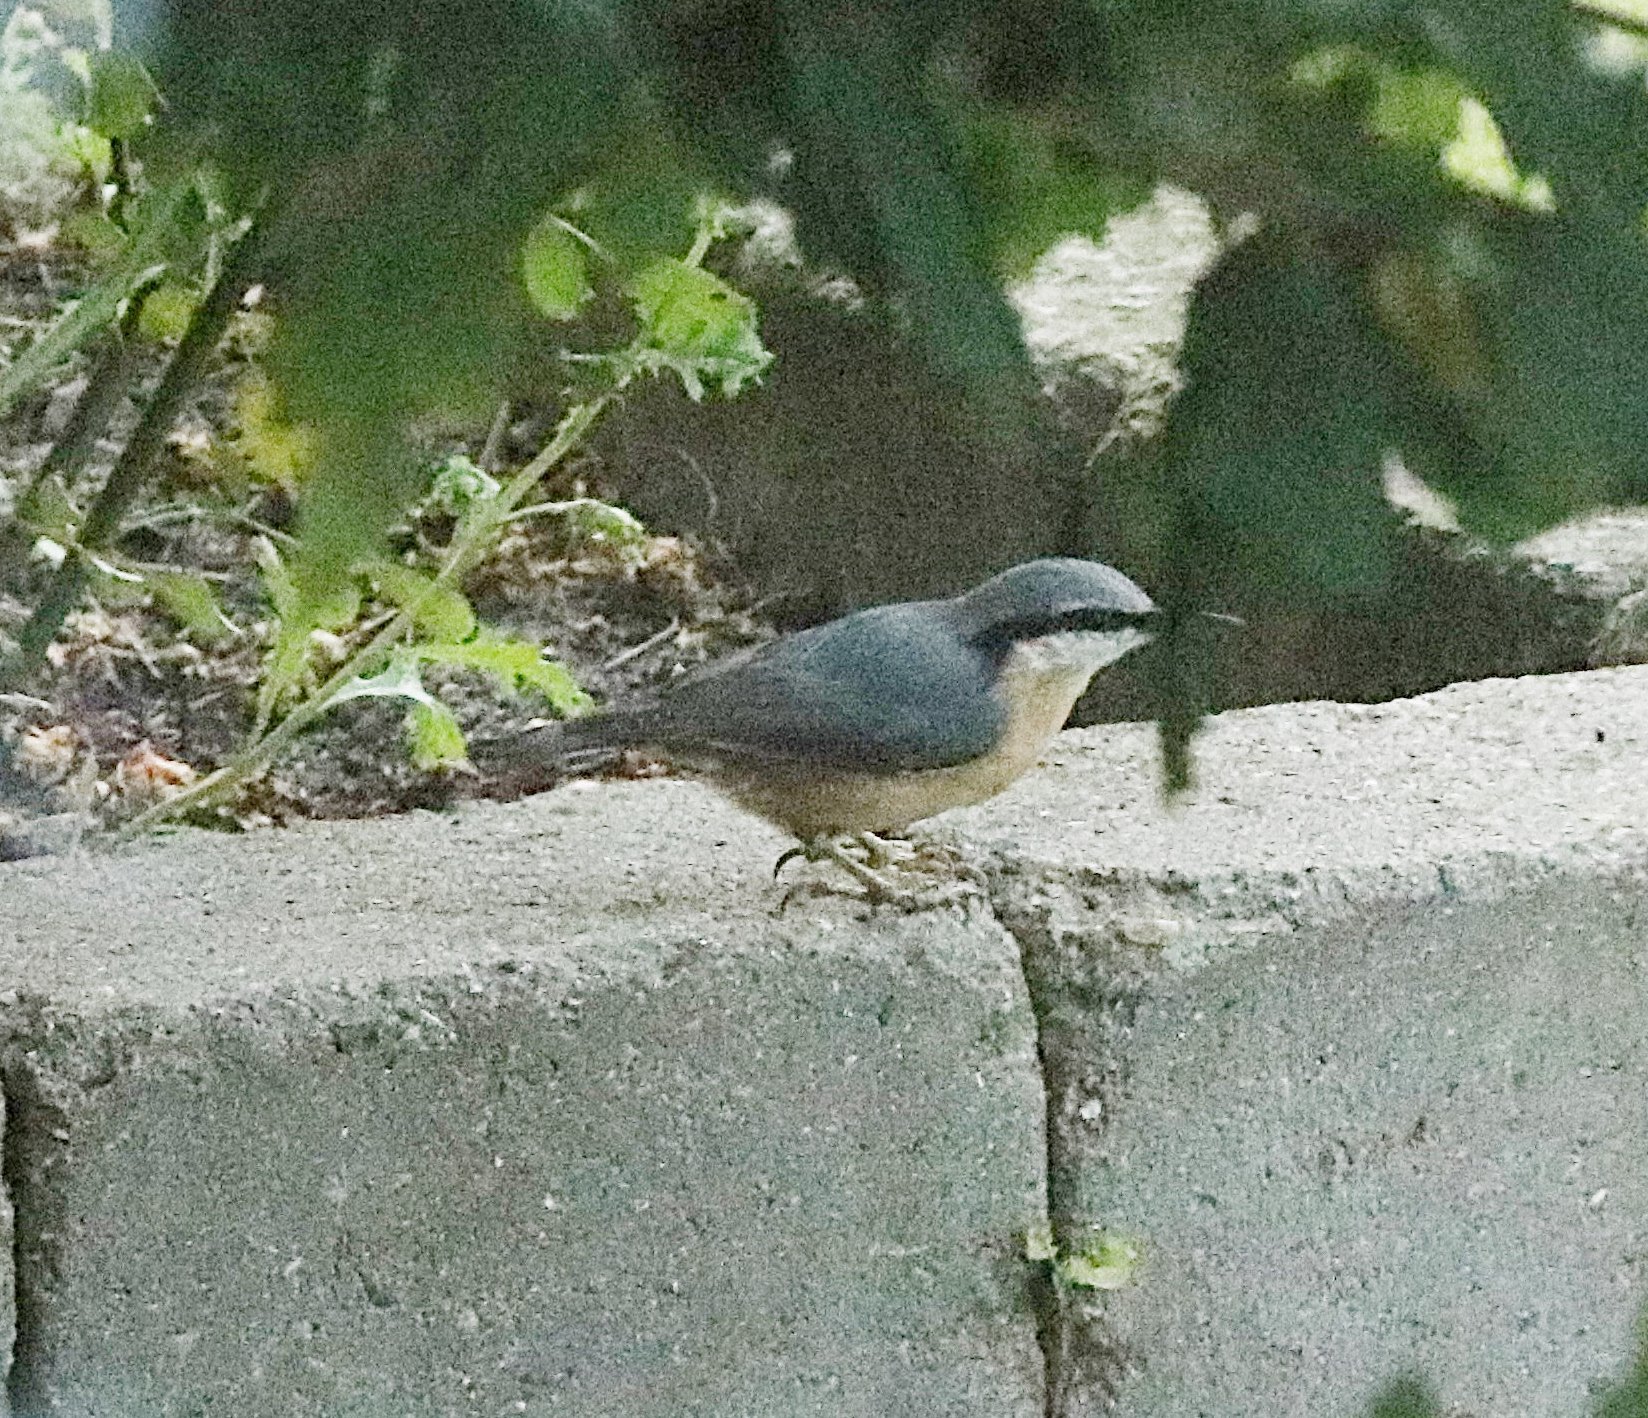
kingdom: Animalia
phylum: Chordata
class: Aves
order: Passeriformes
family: Sittidae
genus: Sitta
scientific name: Sitta europaea
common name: Eurasian nuthatch
